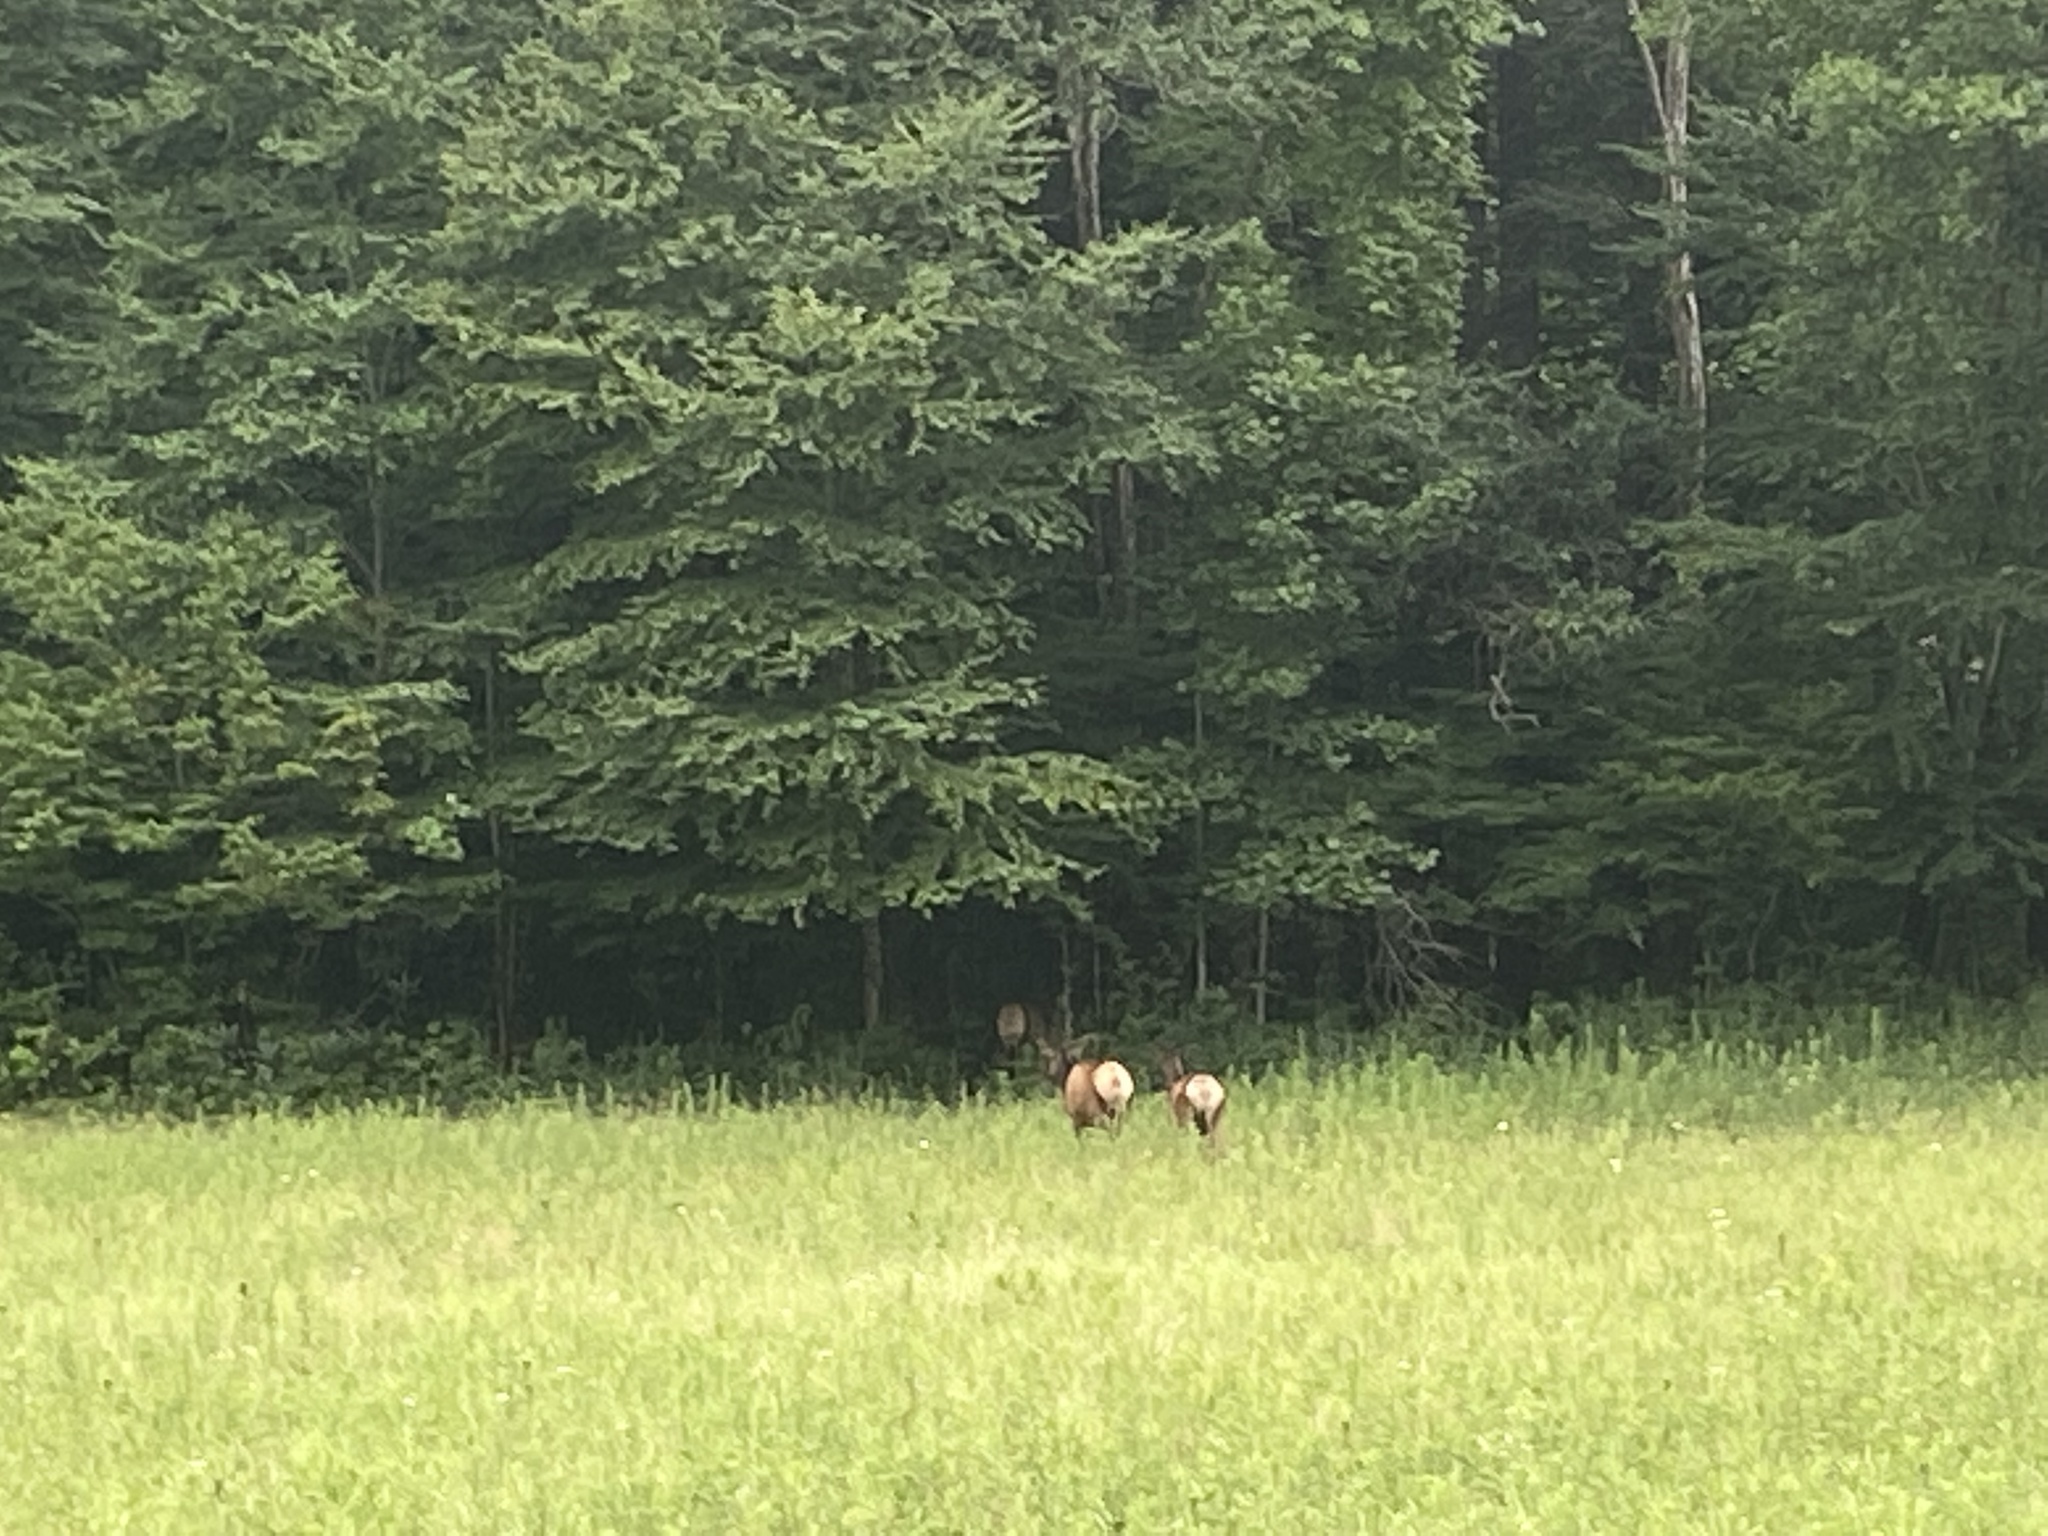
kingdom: Animalia
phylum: Chordata
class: Mammalia
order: Artiodactyla
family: Cervidae
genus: Cervus
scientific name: Cervus elaphus
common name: Red deer
